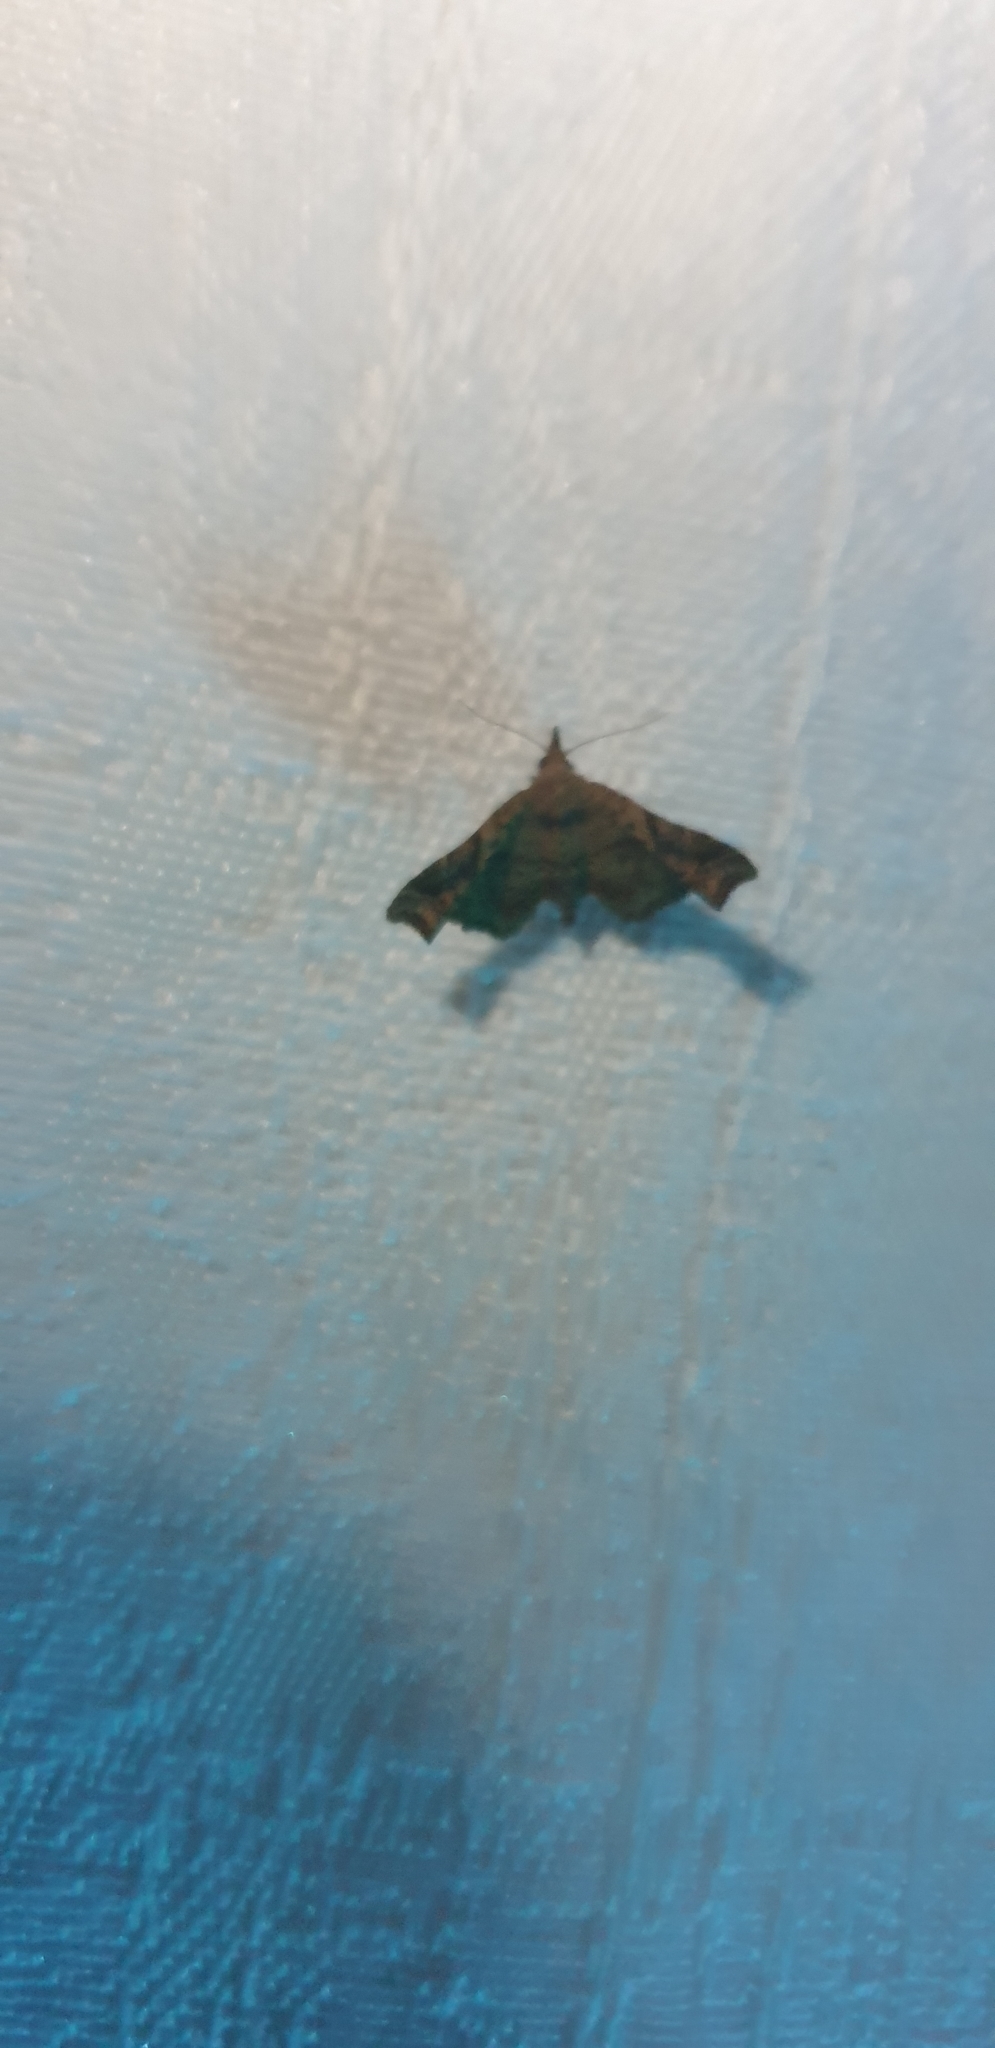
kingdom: Animalia
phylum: Arthropoda
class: Insecta
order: Lepidoptera
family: Erebidae
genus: Esthlodora
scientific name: Esthlodora variabilis
